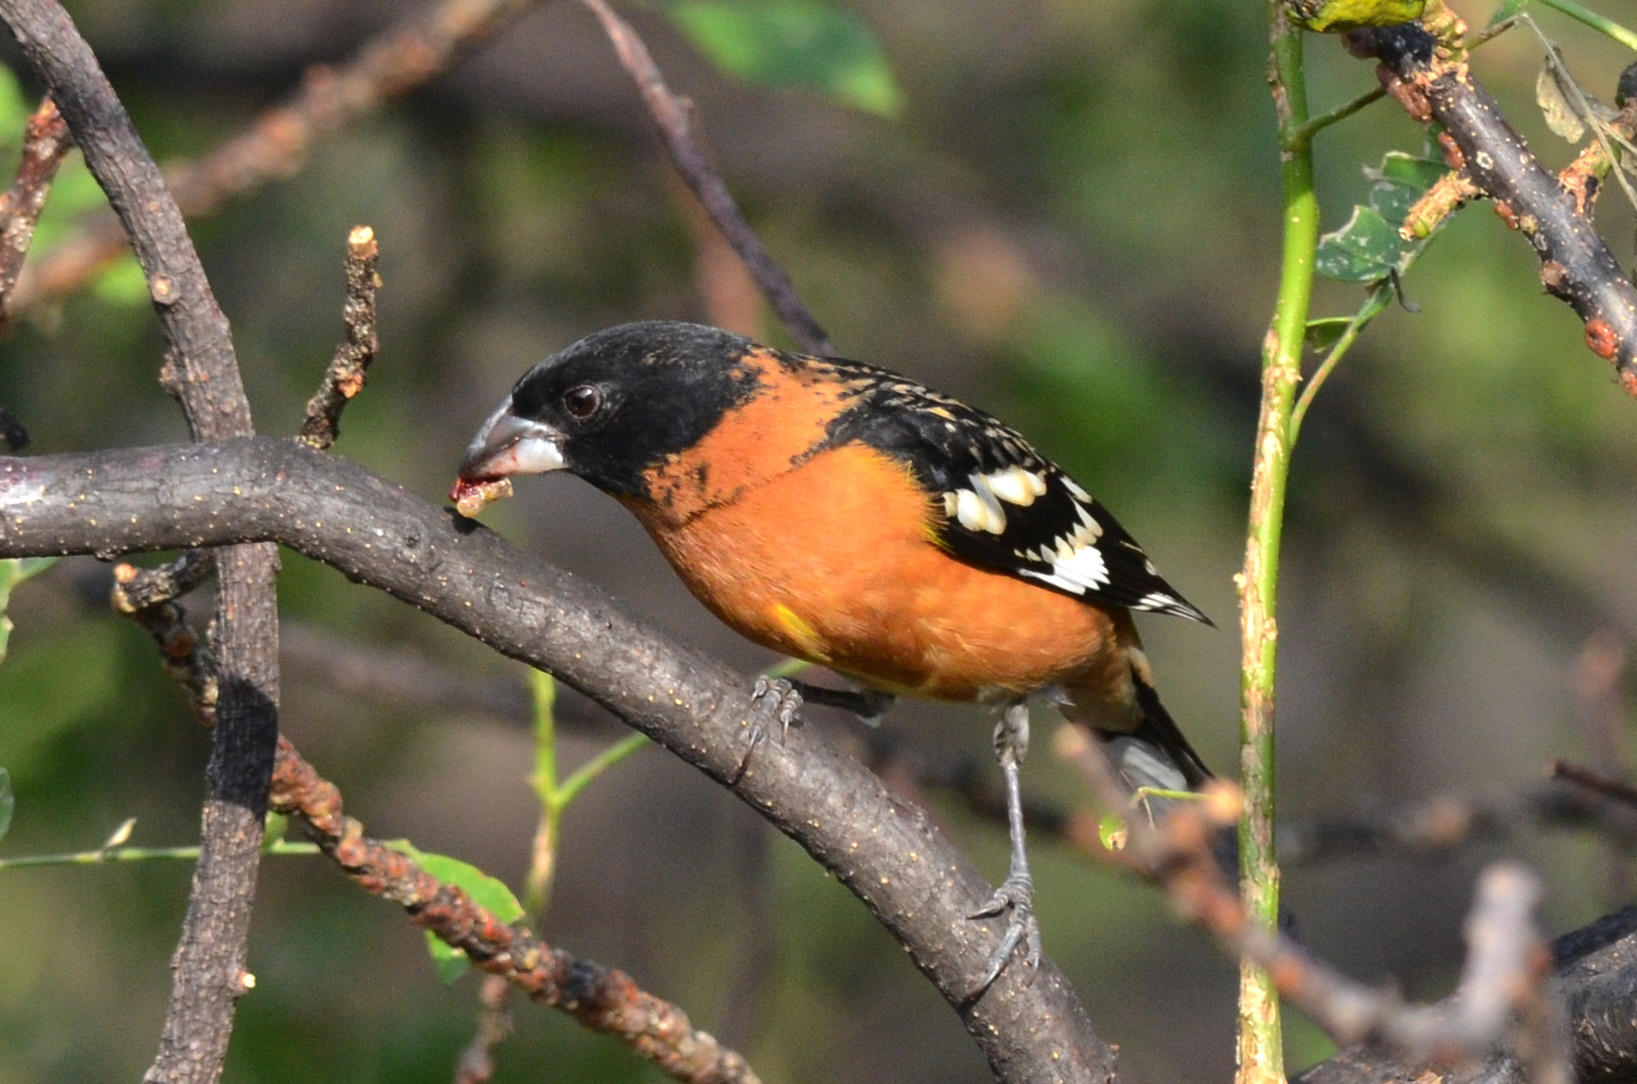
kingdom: Animalia
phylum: Chordata
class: Aves
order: Passeriformes
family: Cardinalidae
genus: Pheucticus
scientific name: Pheucticus melanocephalus
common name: Black-headed grosbeak
